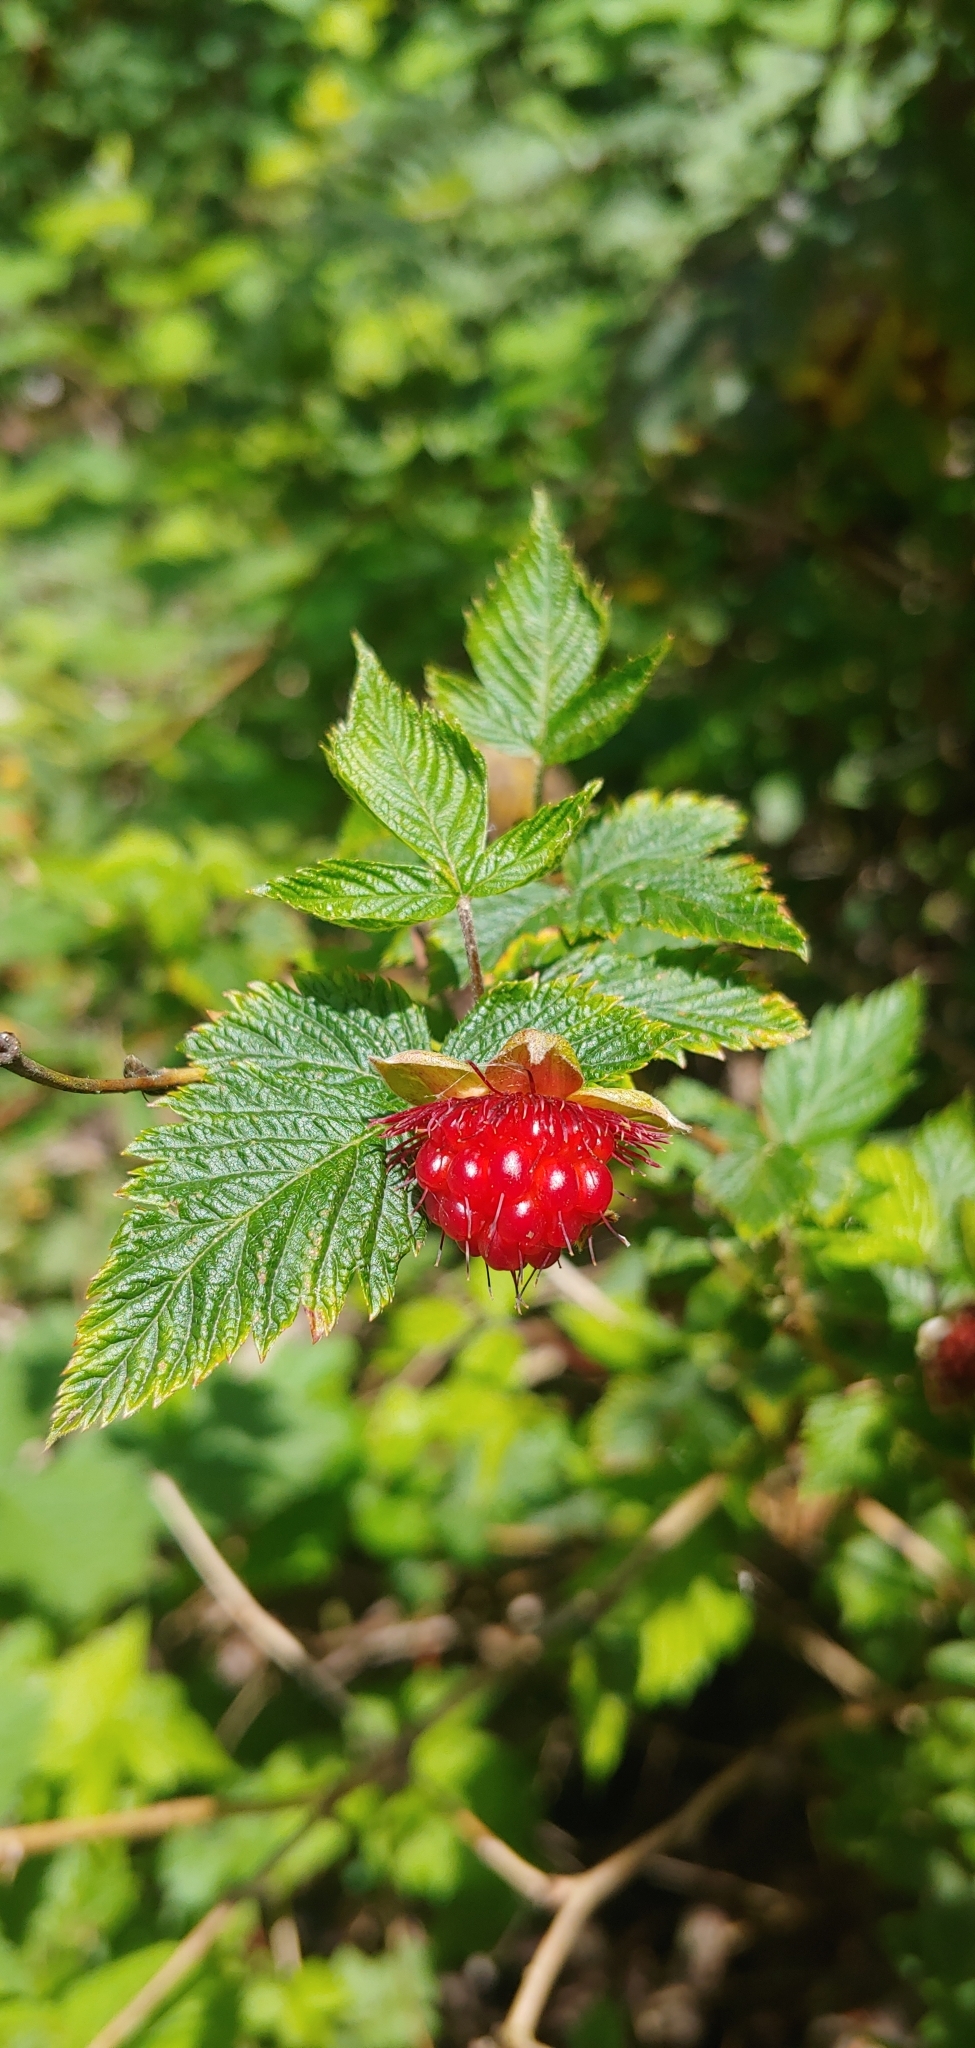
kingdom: Plantae
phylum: Tracheophyta
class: Magnoliopsida
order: Rosales
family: Rosaceae
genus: Rubus
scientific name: Rubus spectabilis
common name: Salmonberry
